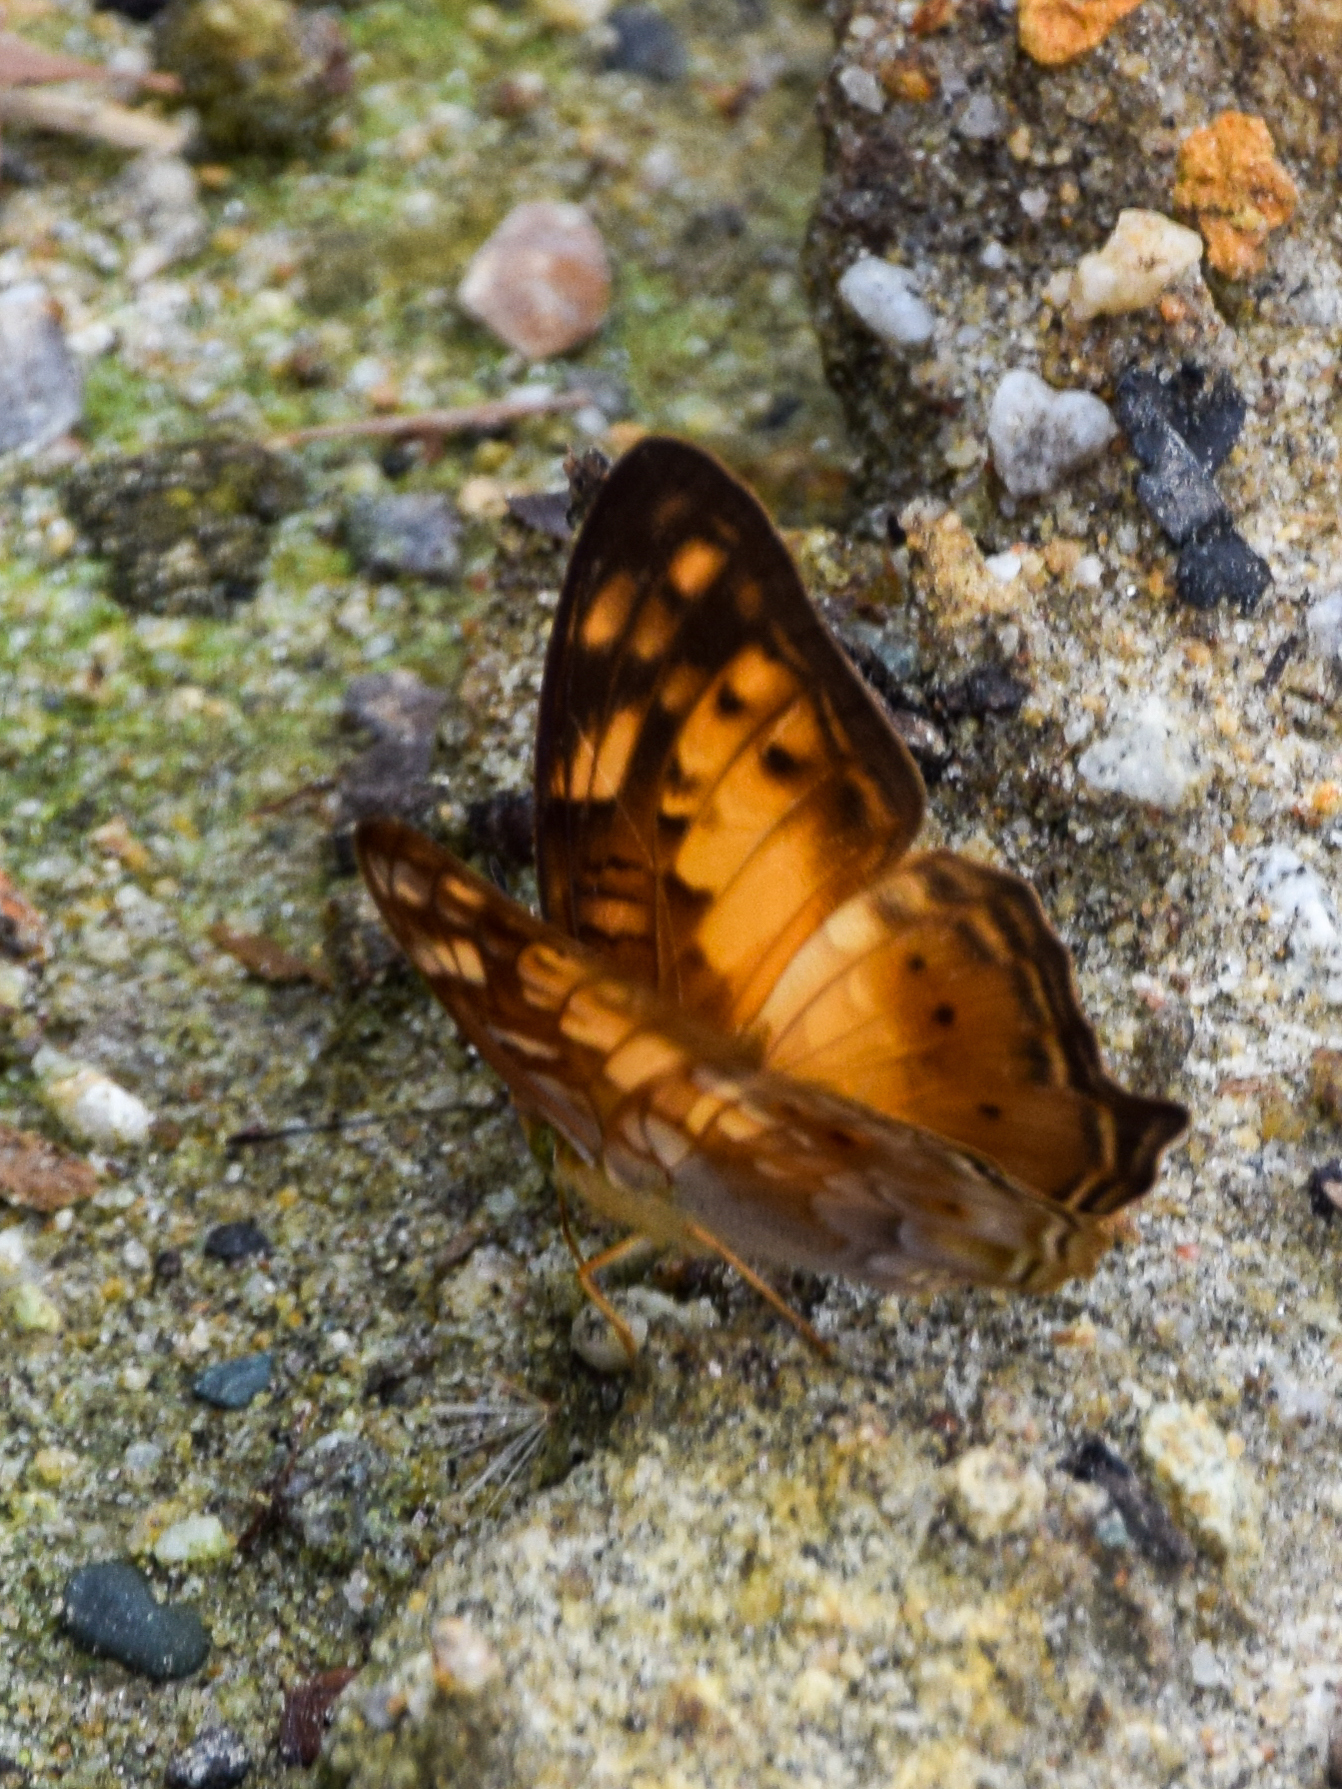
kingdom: Animalia
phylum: Arthropoda
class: Insecta
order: Lepidoptera
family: Nymphalidae
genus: Vagrans
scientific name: Vagrans sinha
